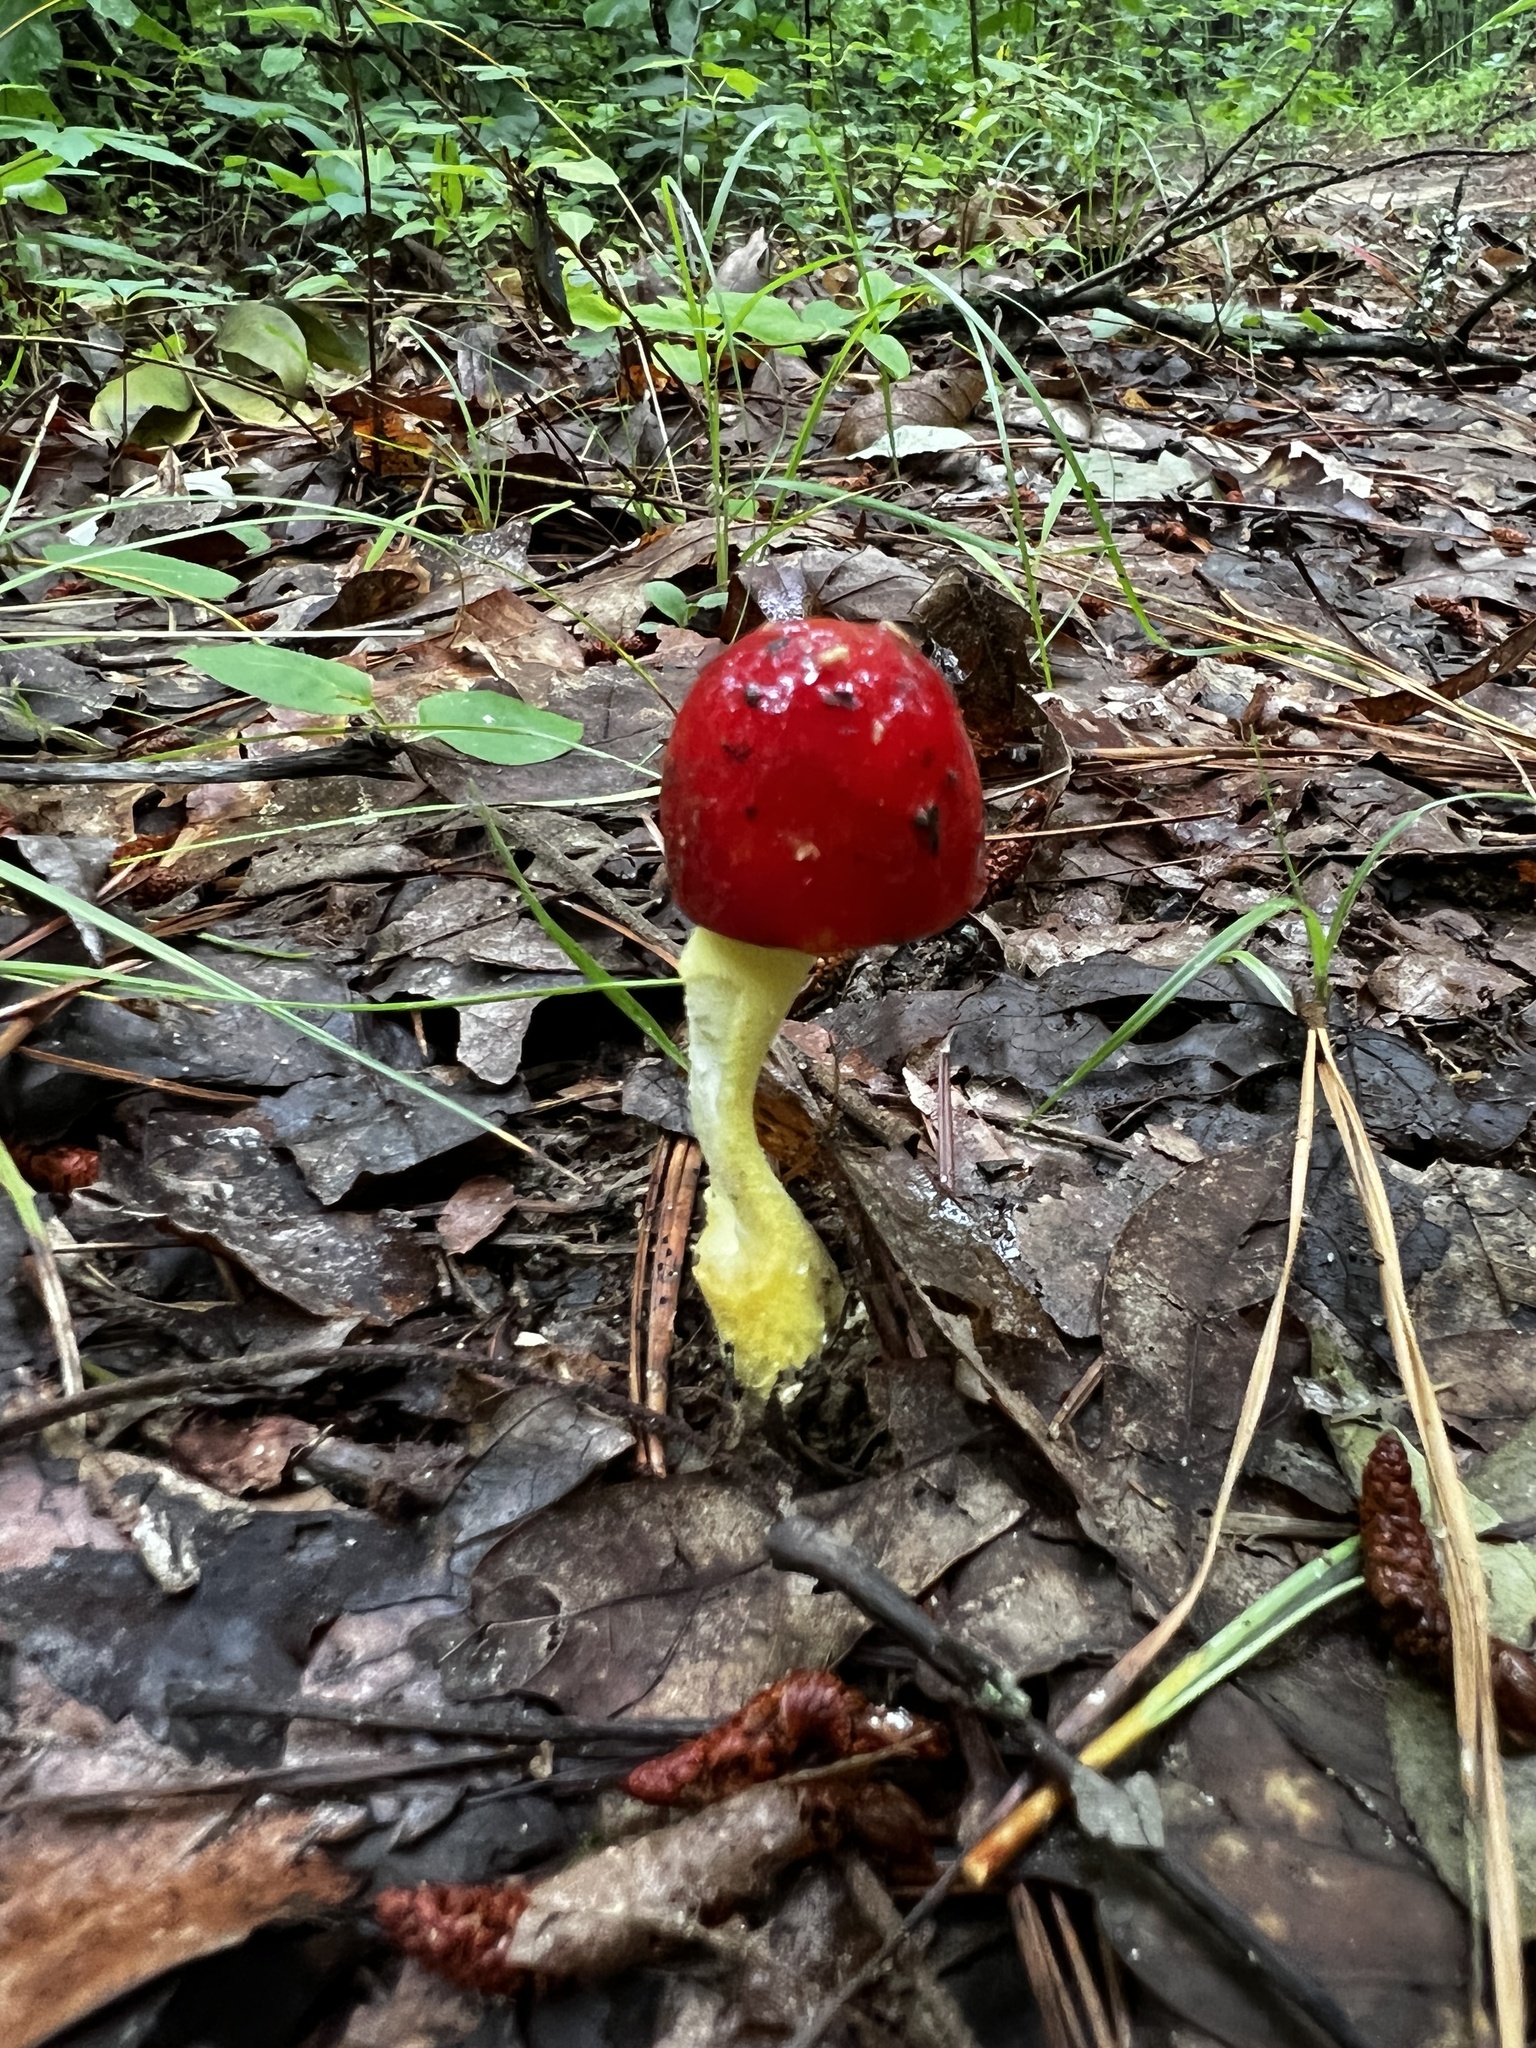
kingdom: Fungi
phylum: Basidiomycota
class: Agaricomycetes
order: Agaricales
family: Amanitaceae
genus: Amanita
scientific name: Amanita parcivolvata
